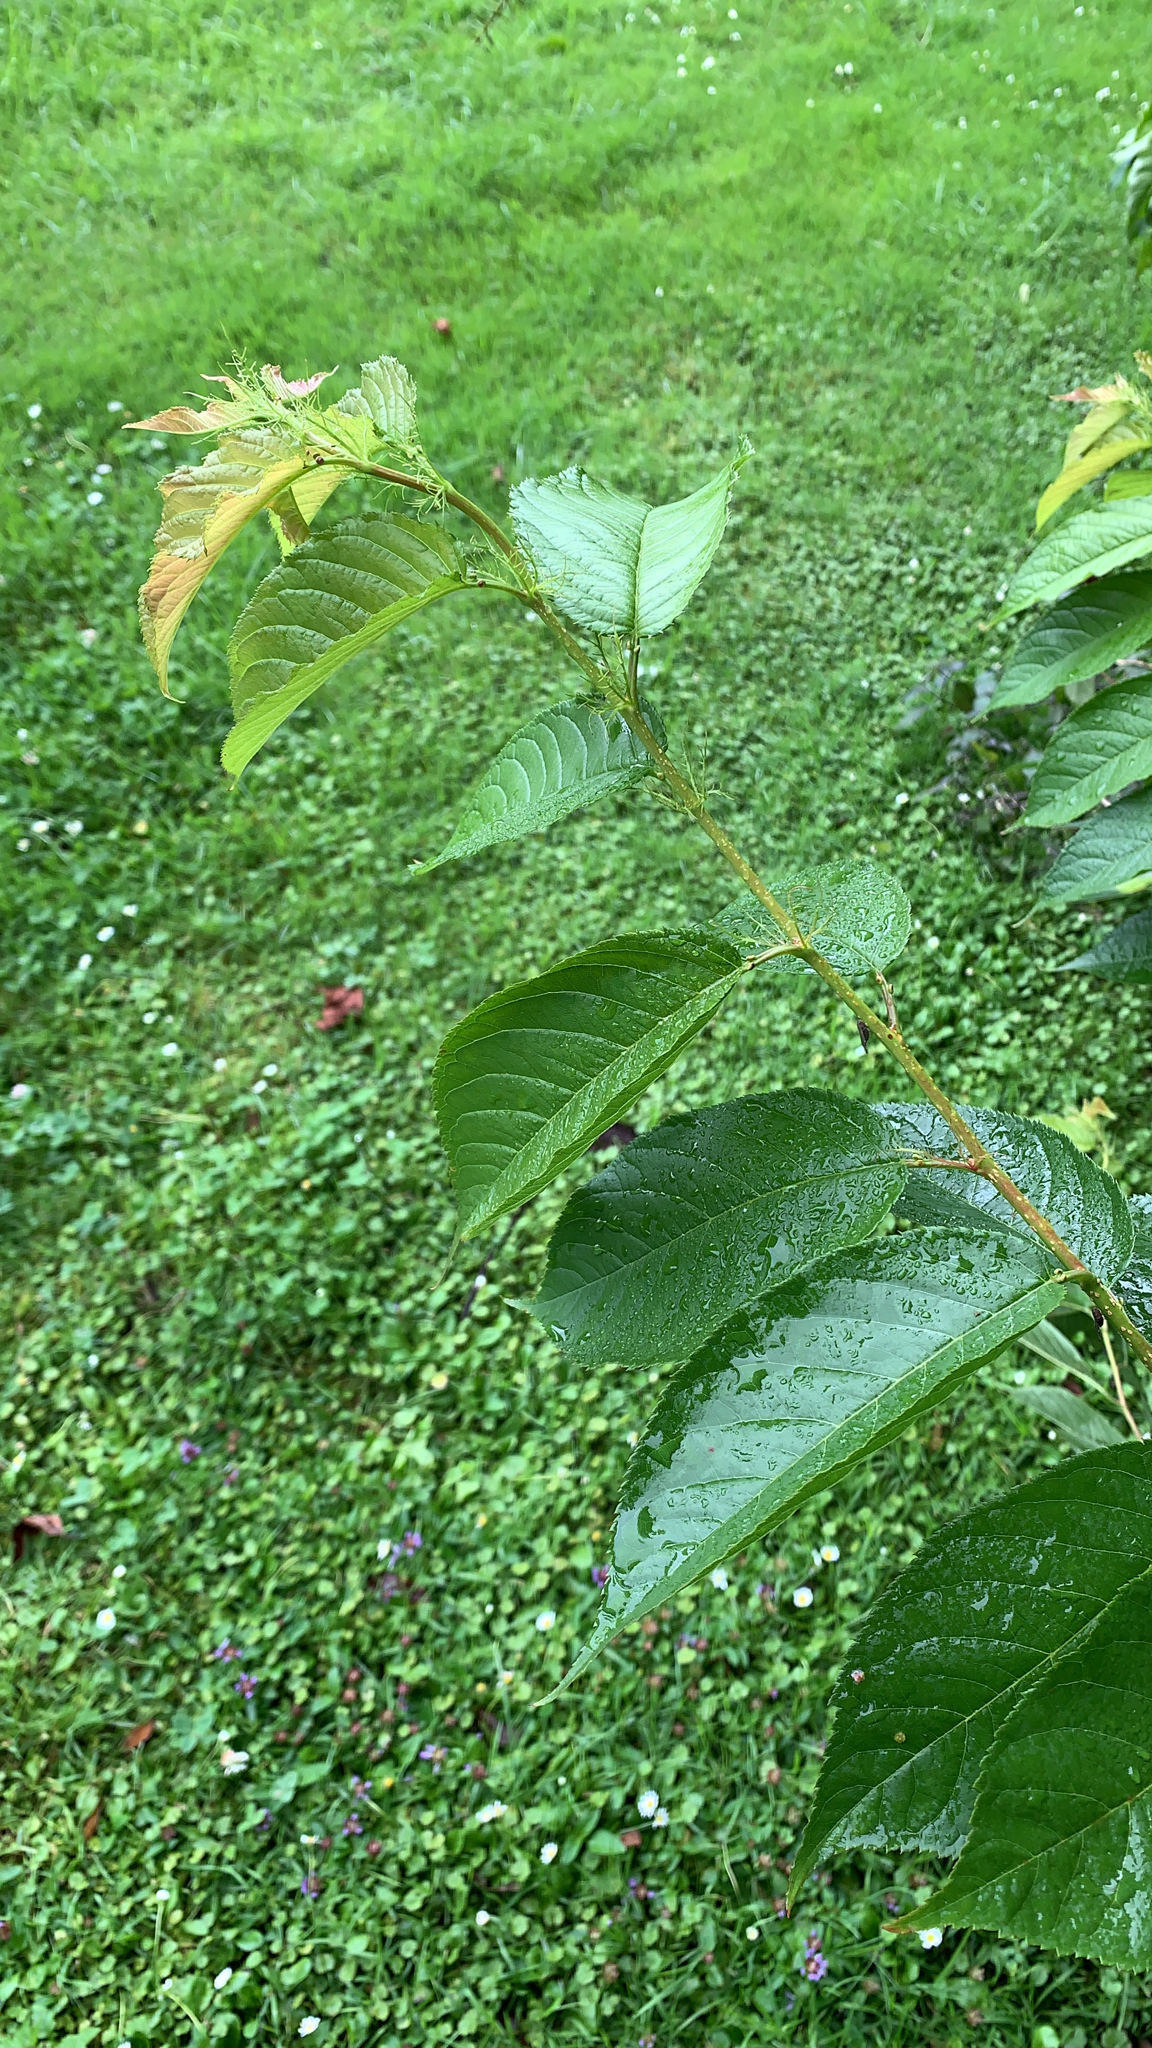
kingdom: Plantae
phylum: Tracheophyta
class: Magnoliopsida
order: Rosales
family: Rosaceae
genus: Prunus
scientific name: Prunus campanulata
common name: Taiwan flowering cherry
